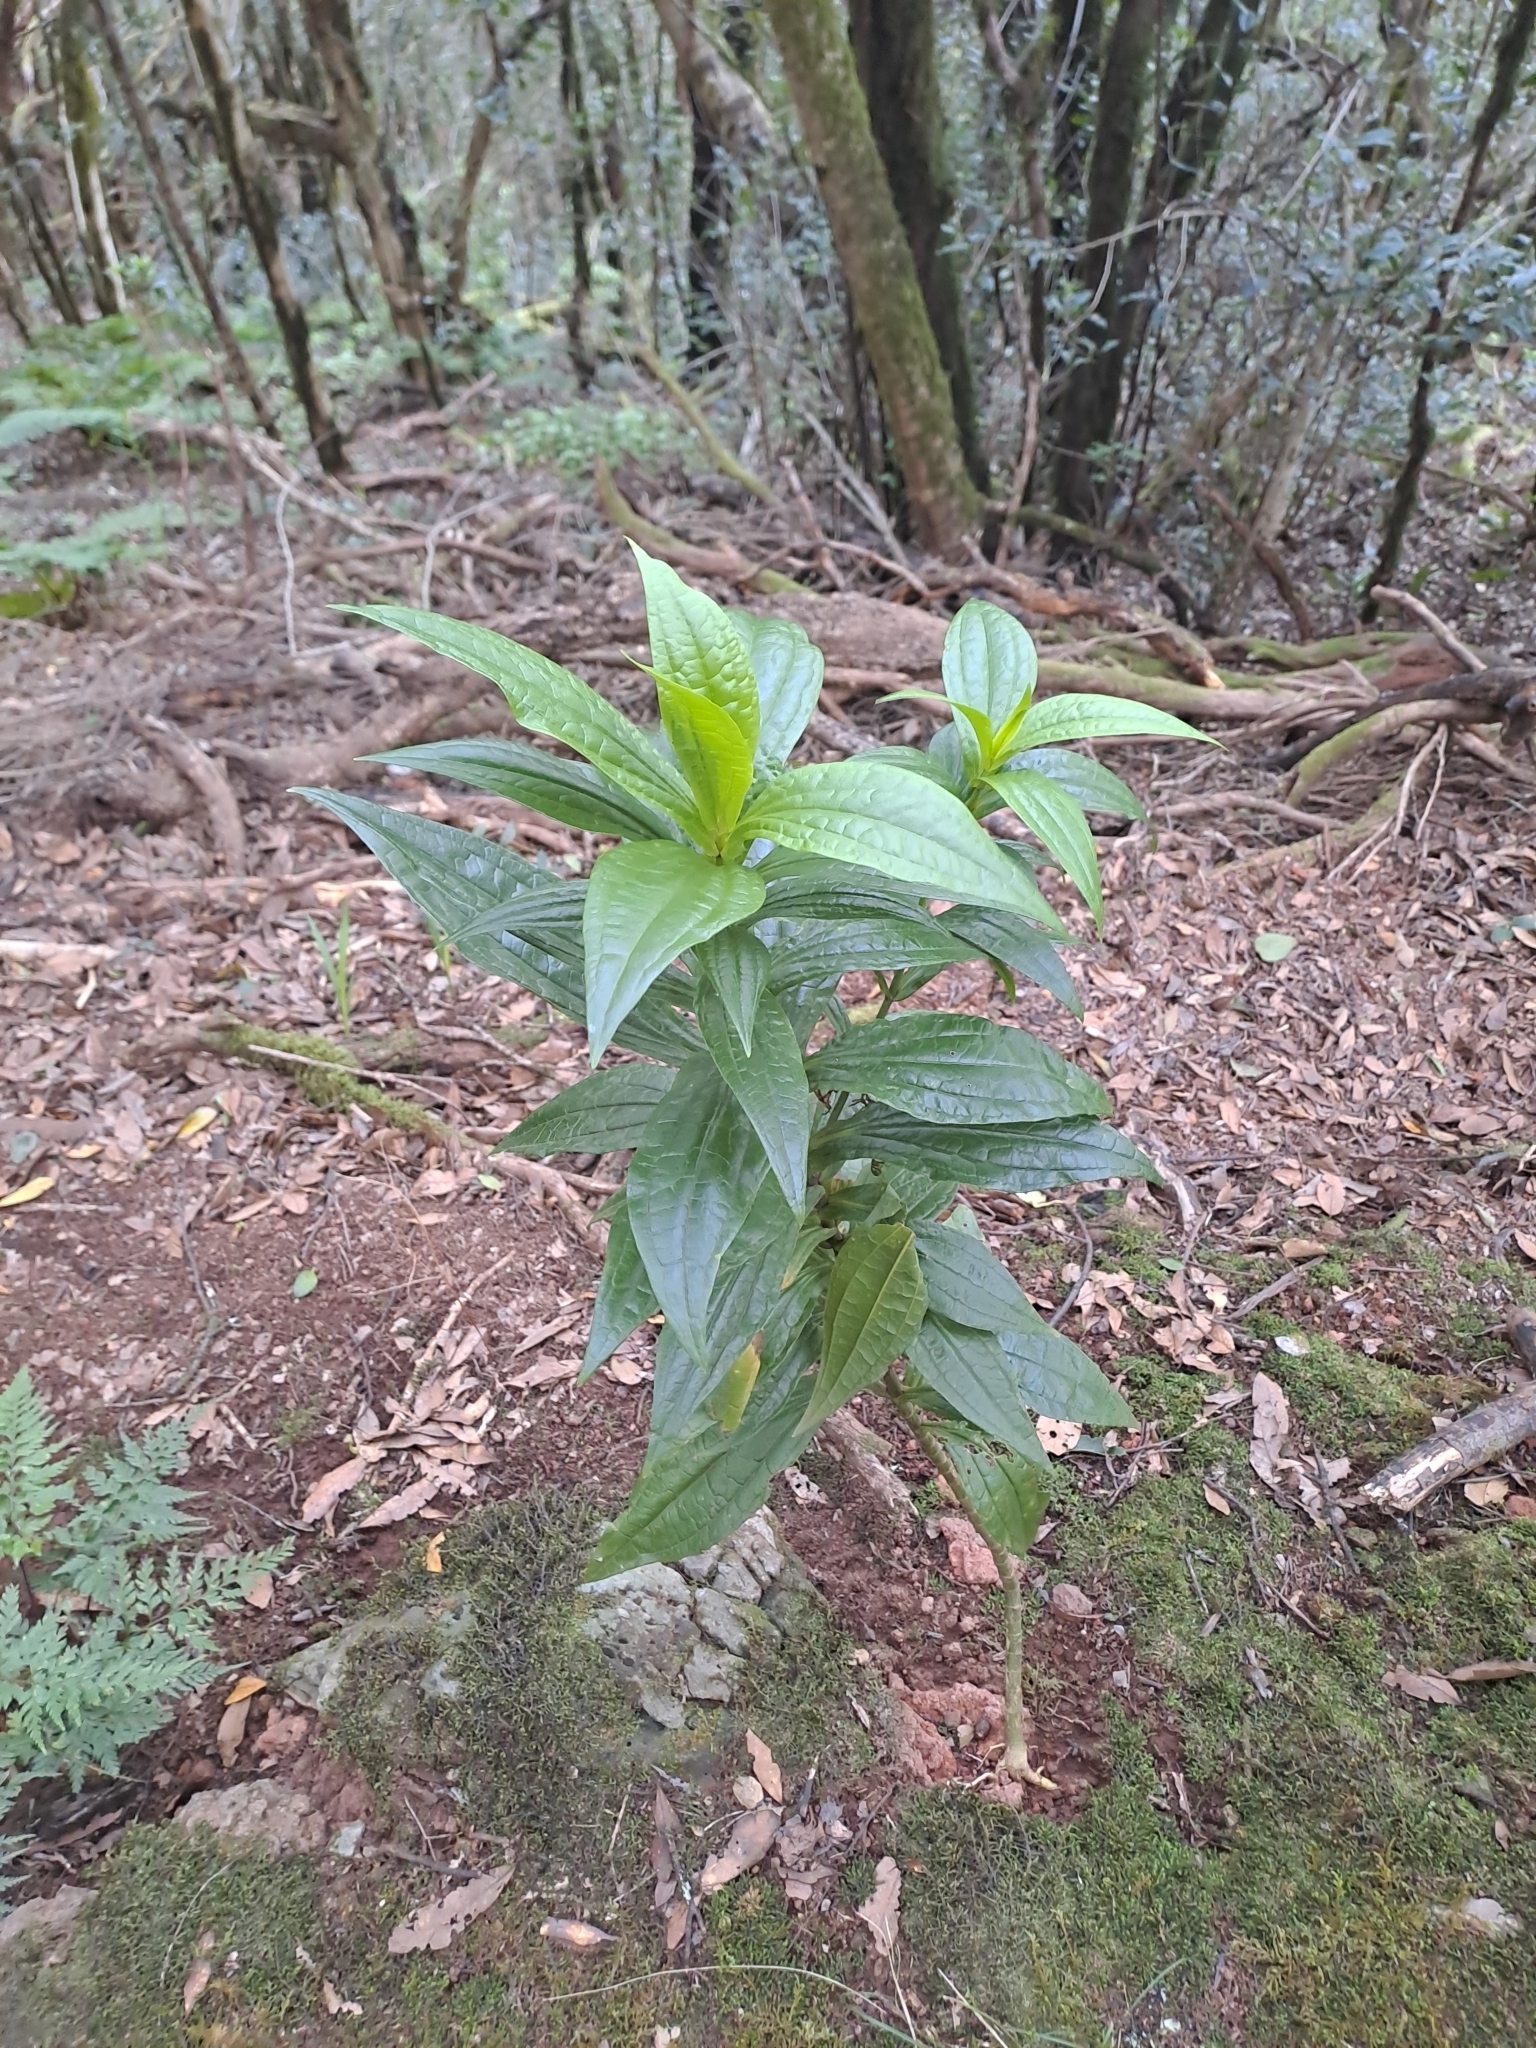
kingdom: Plantae
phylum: Tracheophyta
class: Magnoliopsida
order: Gentianales
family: Gentianaceae
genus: Ixanthus
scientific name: Ixanthus viscosus
